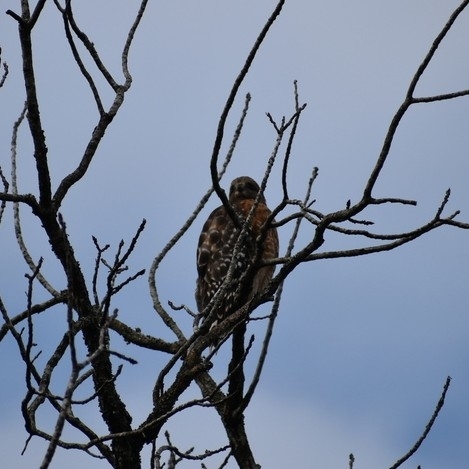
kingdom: Animalia
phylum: Chordata
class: Aves
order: Accipitriformes
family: Accipitridae
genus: Buteo
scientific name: Buteo lineatus
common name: Red-shouldered hawk
